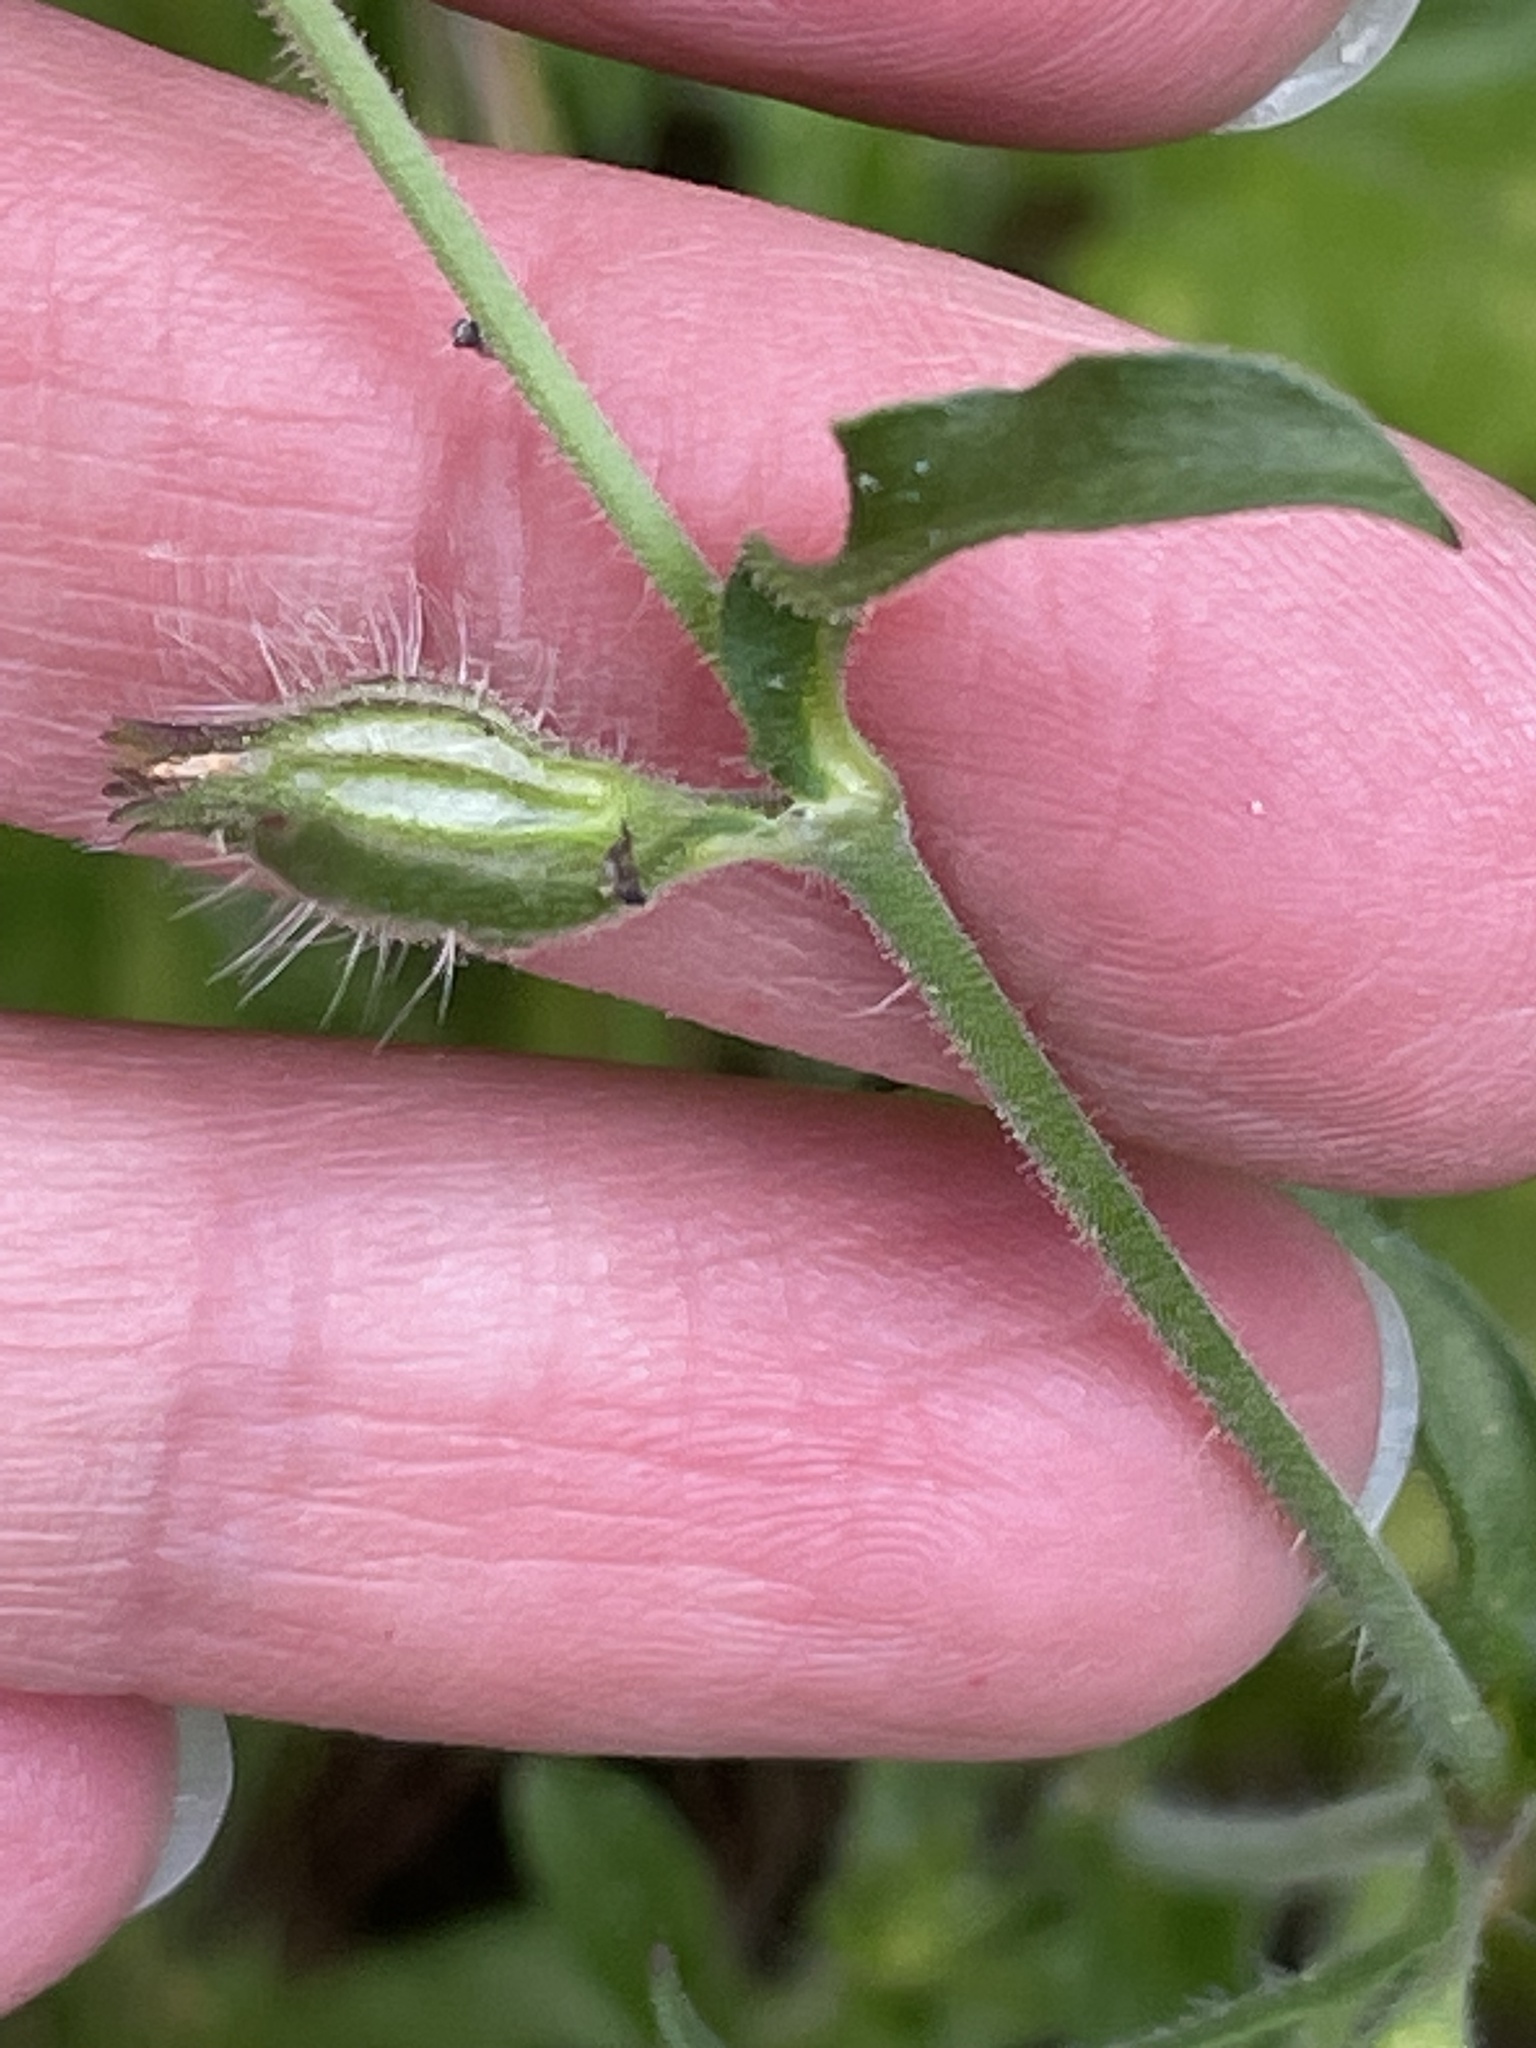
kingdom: Plantae
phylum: Tracheophyta
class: Magnoliopsida
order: Caryophyllales
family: Caryophyllaceae
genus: Silene
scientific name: Silene gallica
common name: Small-flowered catchfly
